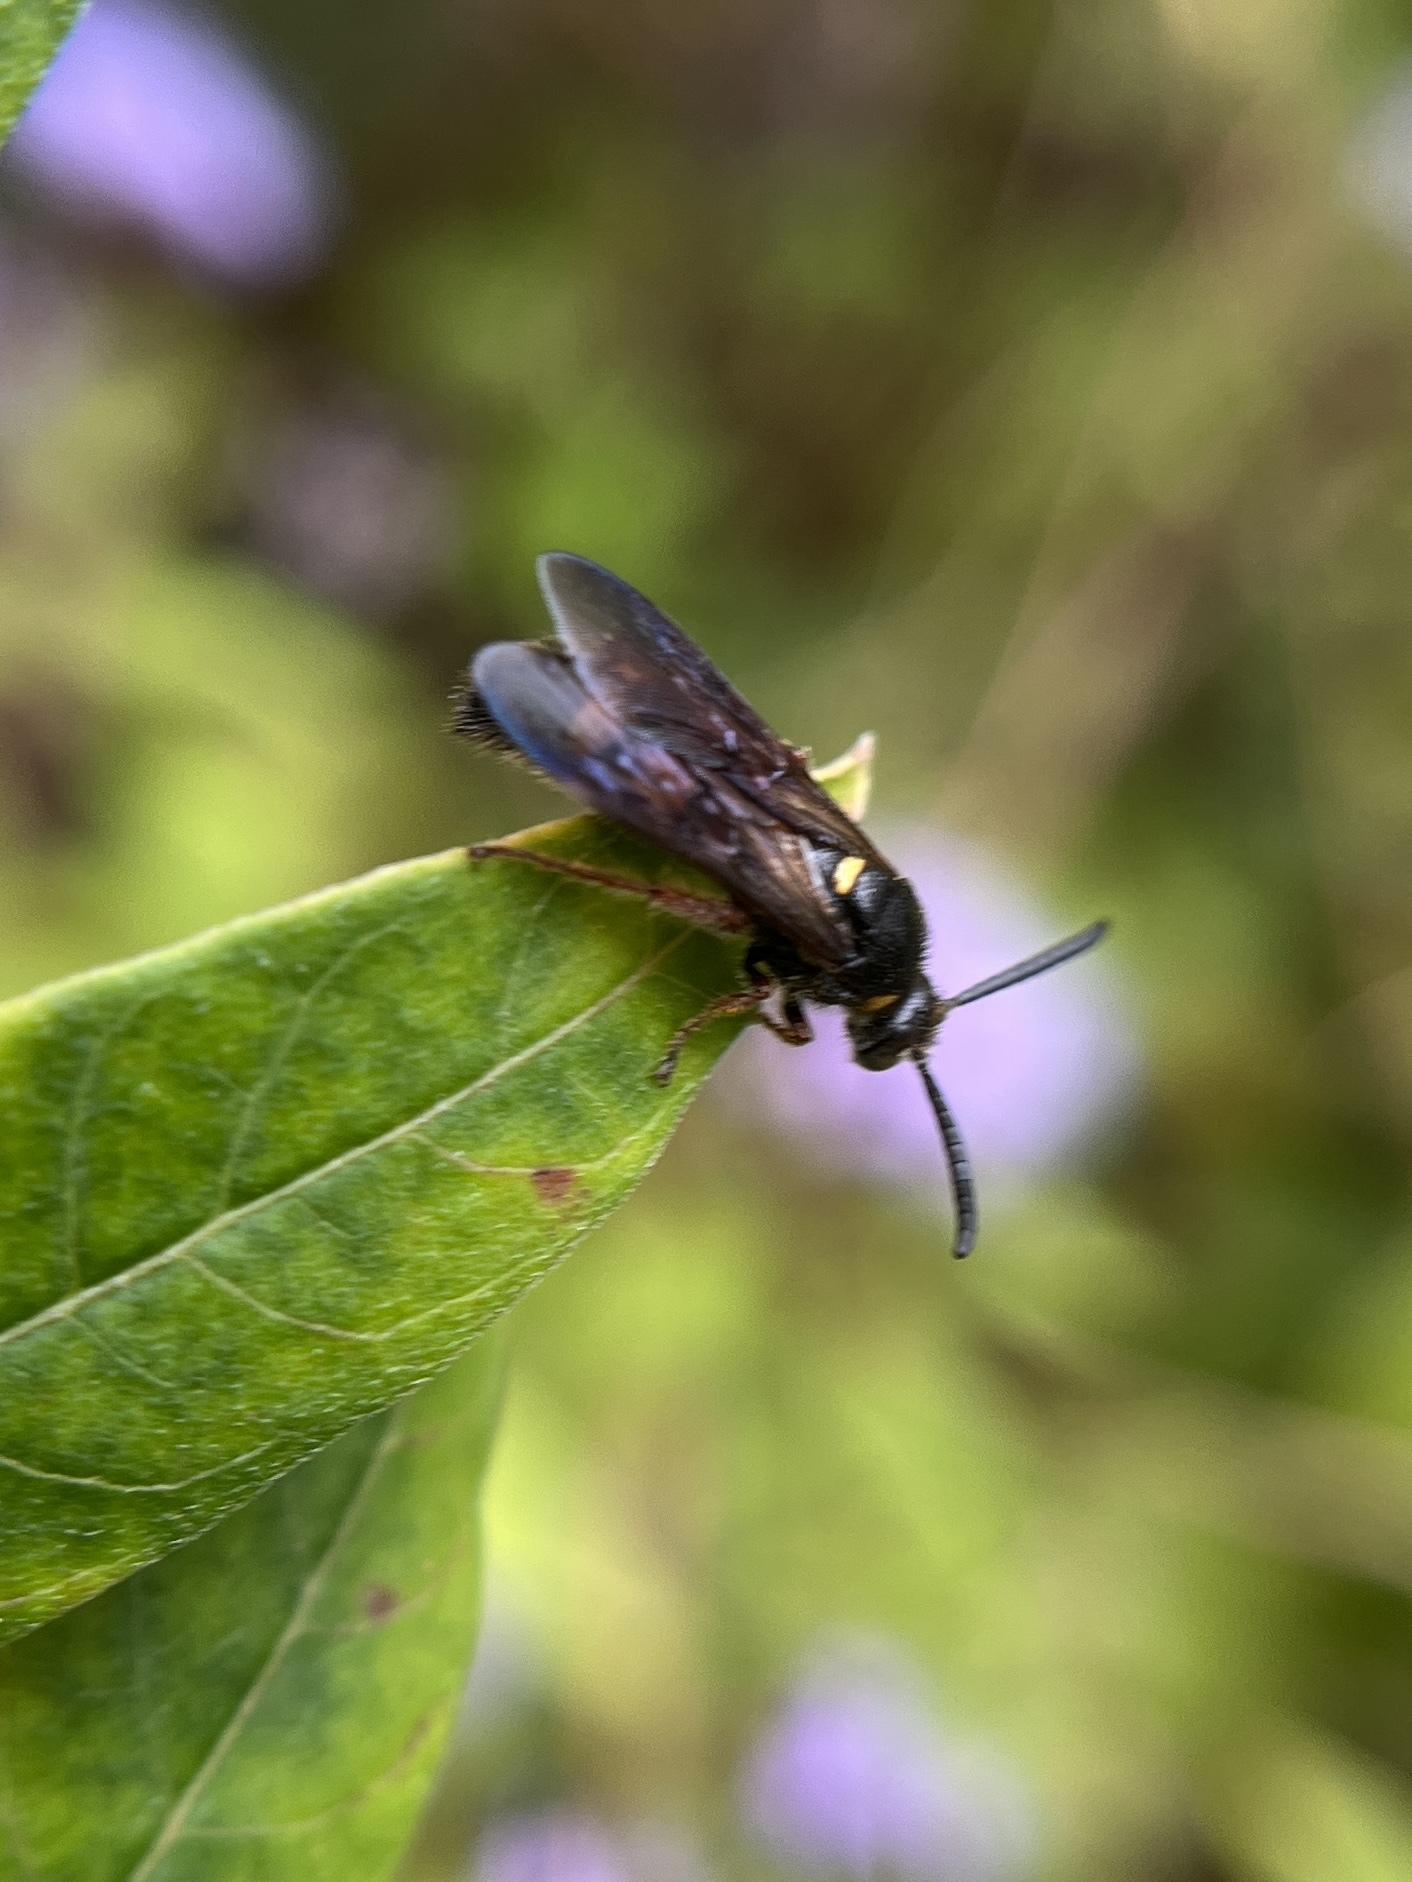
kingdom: Animalia
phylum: Arthropoda
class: Insecta
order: Hymenoptera
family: Scoliidae
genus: Scolia
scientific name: Scolia nobilitata
